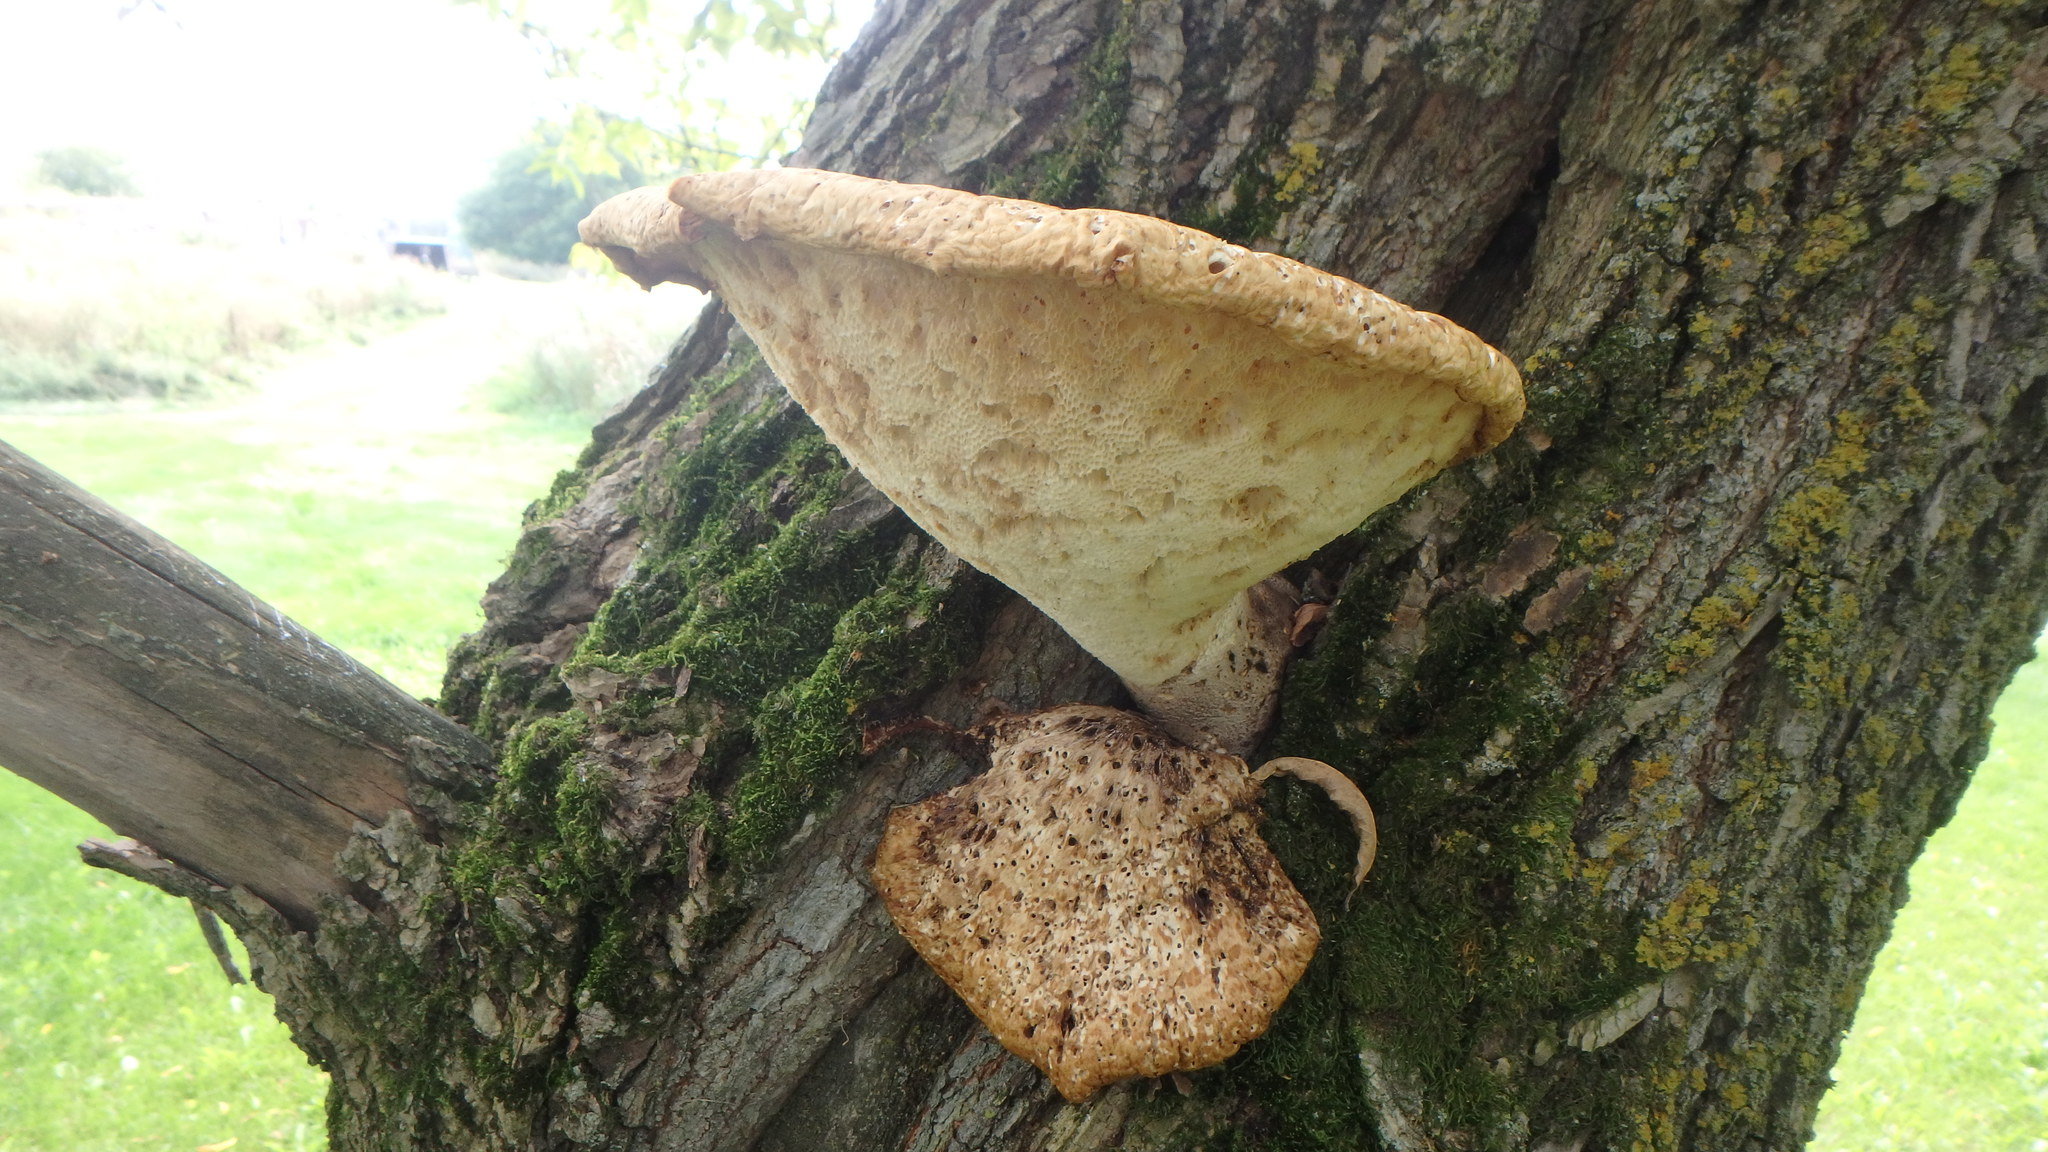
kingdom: Fungi
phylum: Basidiomycota
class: Agaricomycetes
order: Polyporales
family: Polyporaceae
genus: Cerioporus
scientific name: Cerioporus squamosus
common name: Dryad's saddle
